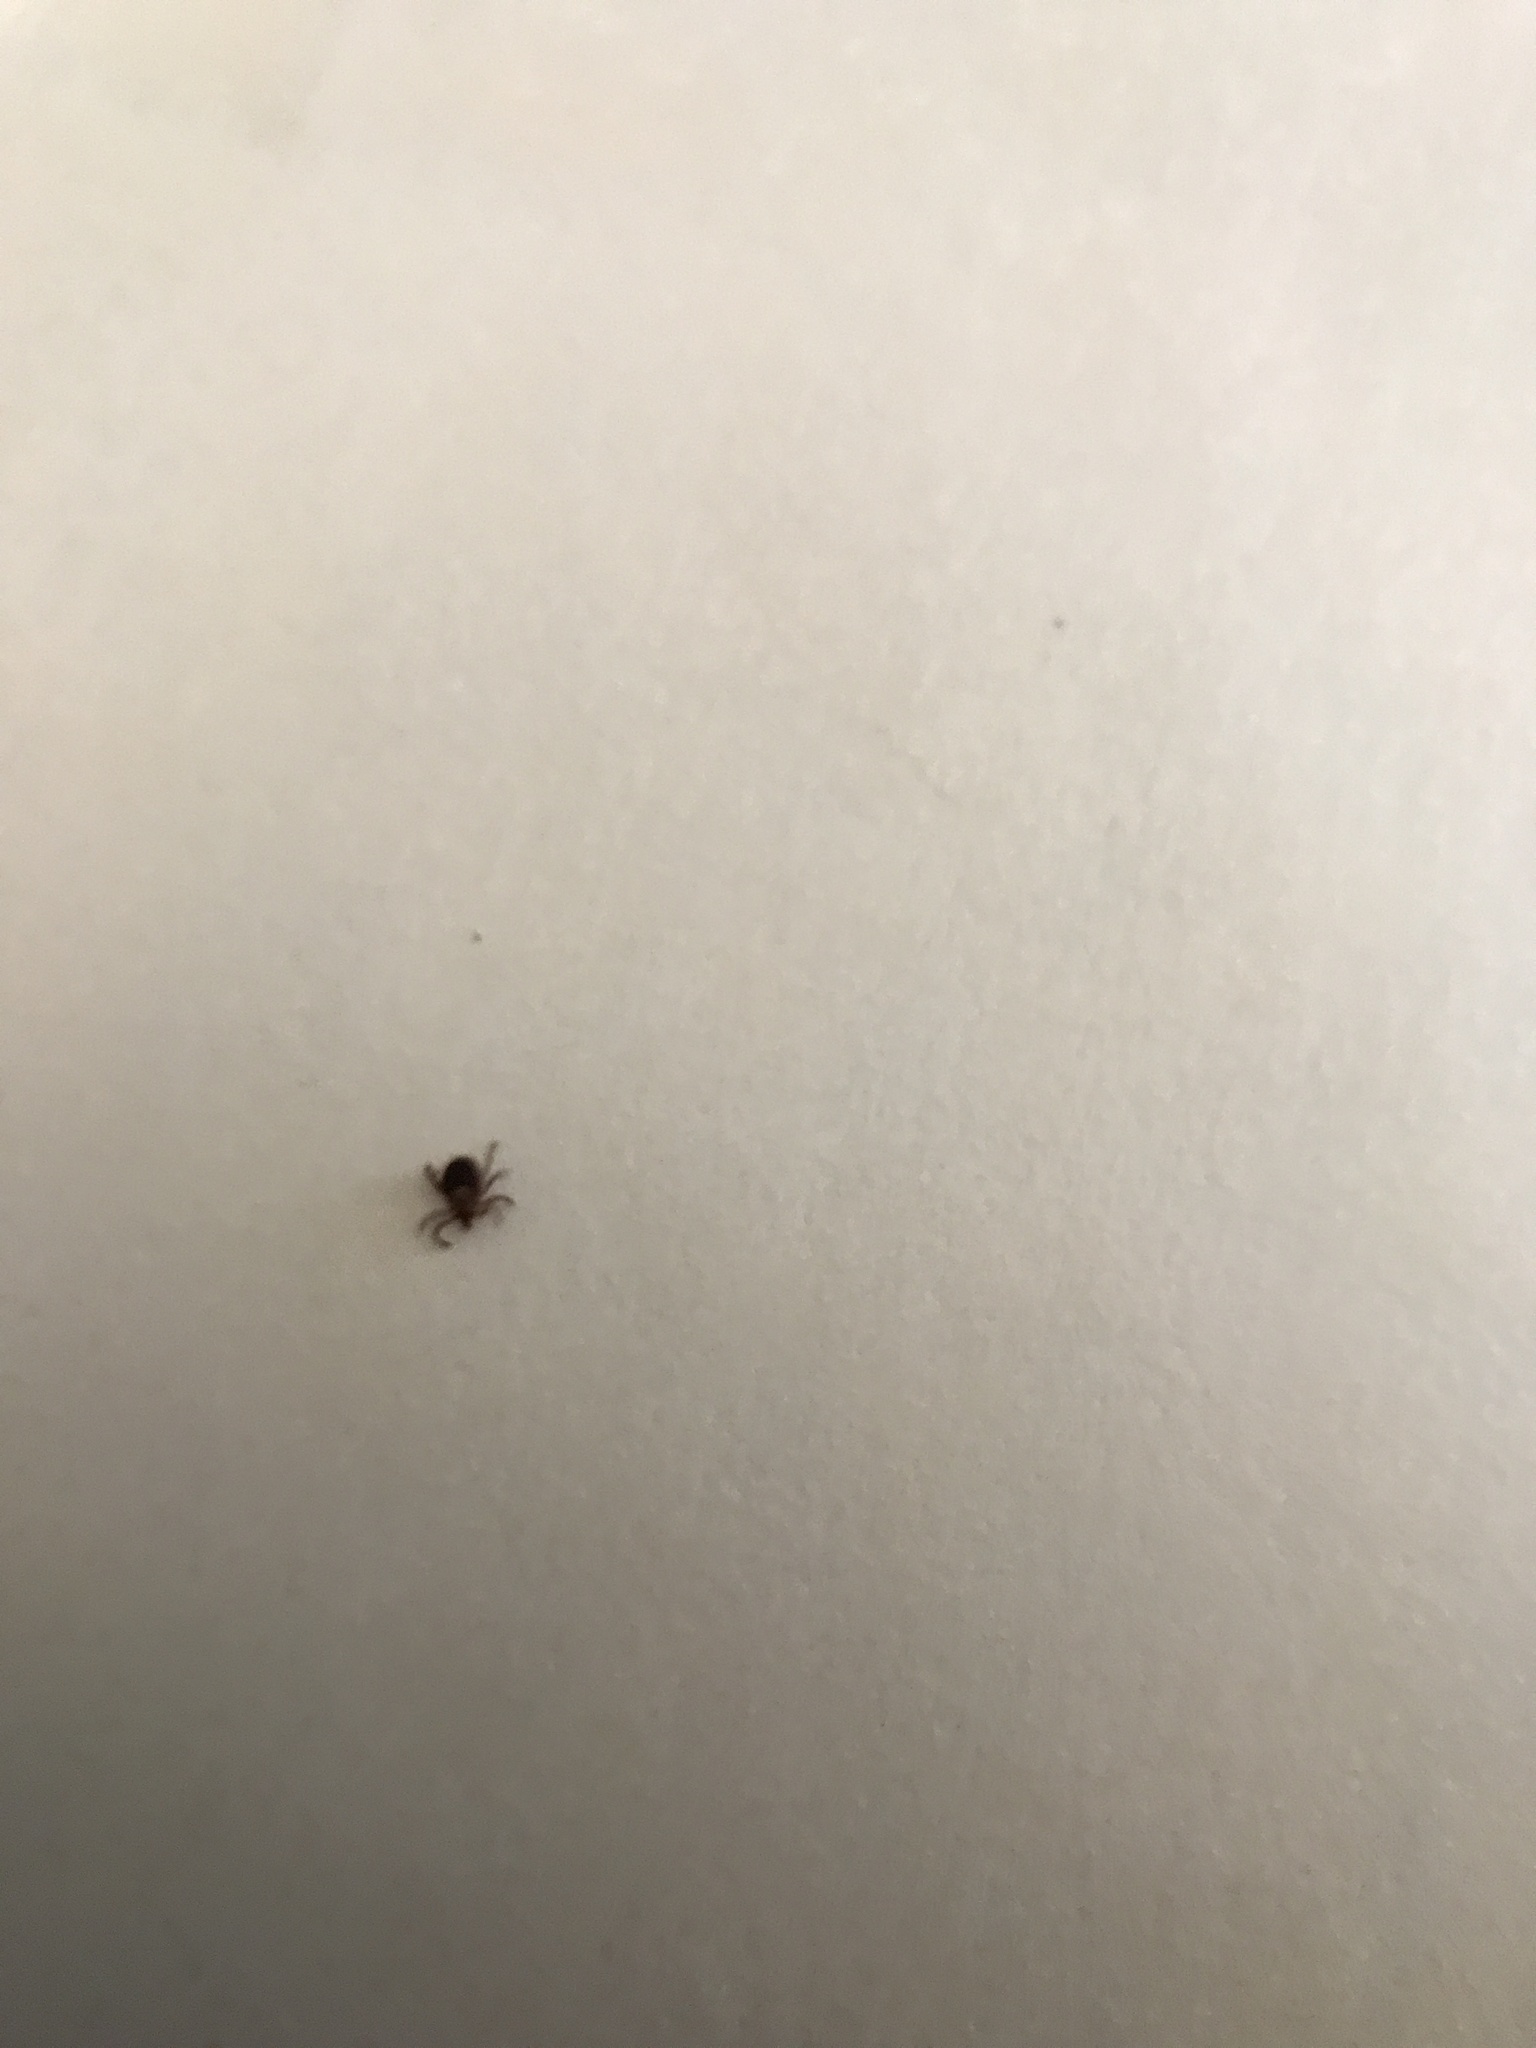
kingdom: Animalia
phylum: Arthropoda
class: Arachnida
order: Ixodida
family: Ixodidae
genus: Dermacentor
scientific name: Dermacentor variabilis
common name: American dog tick
